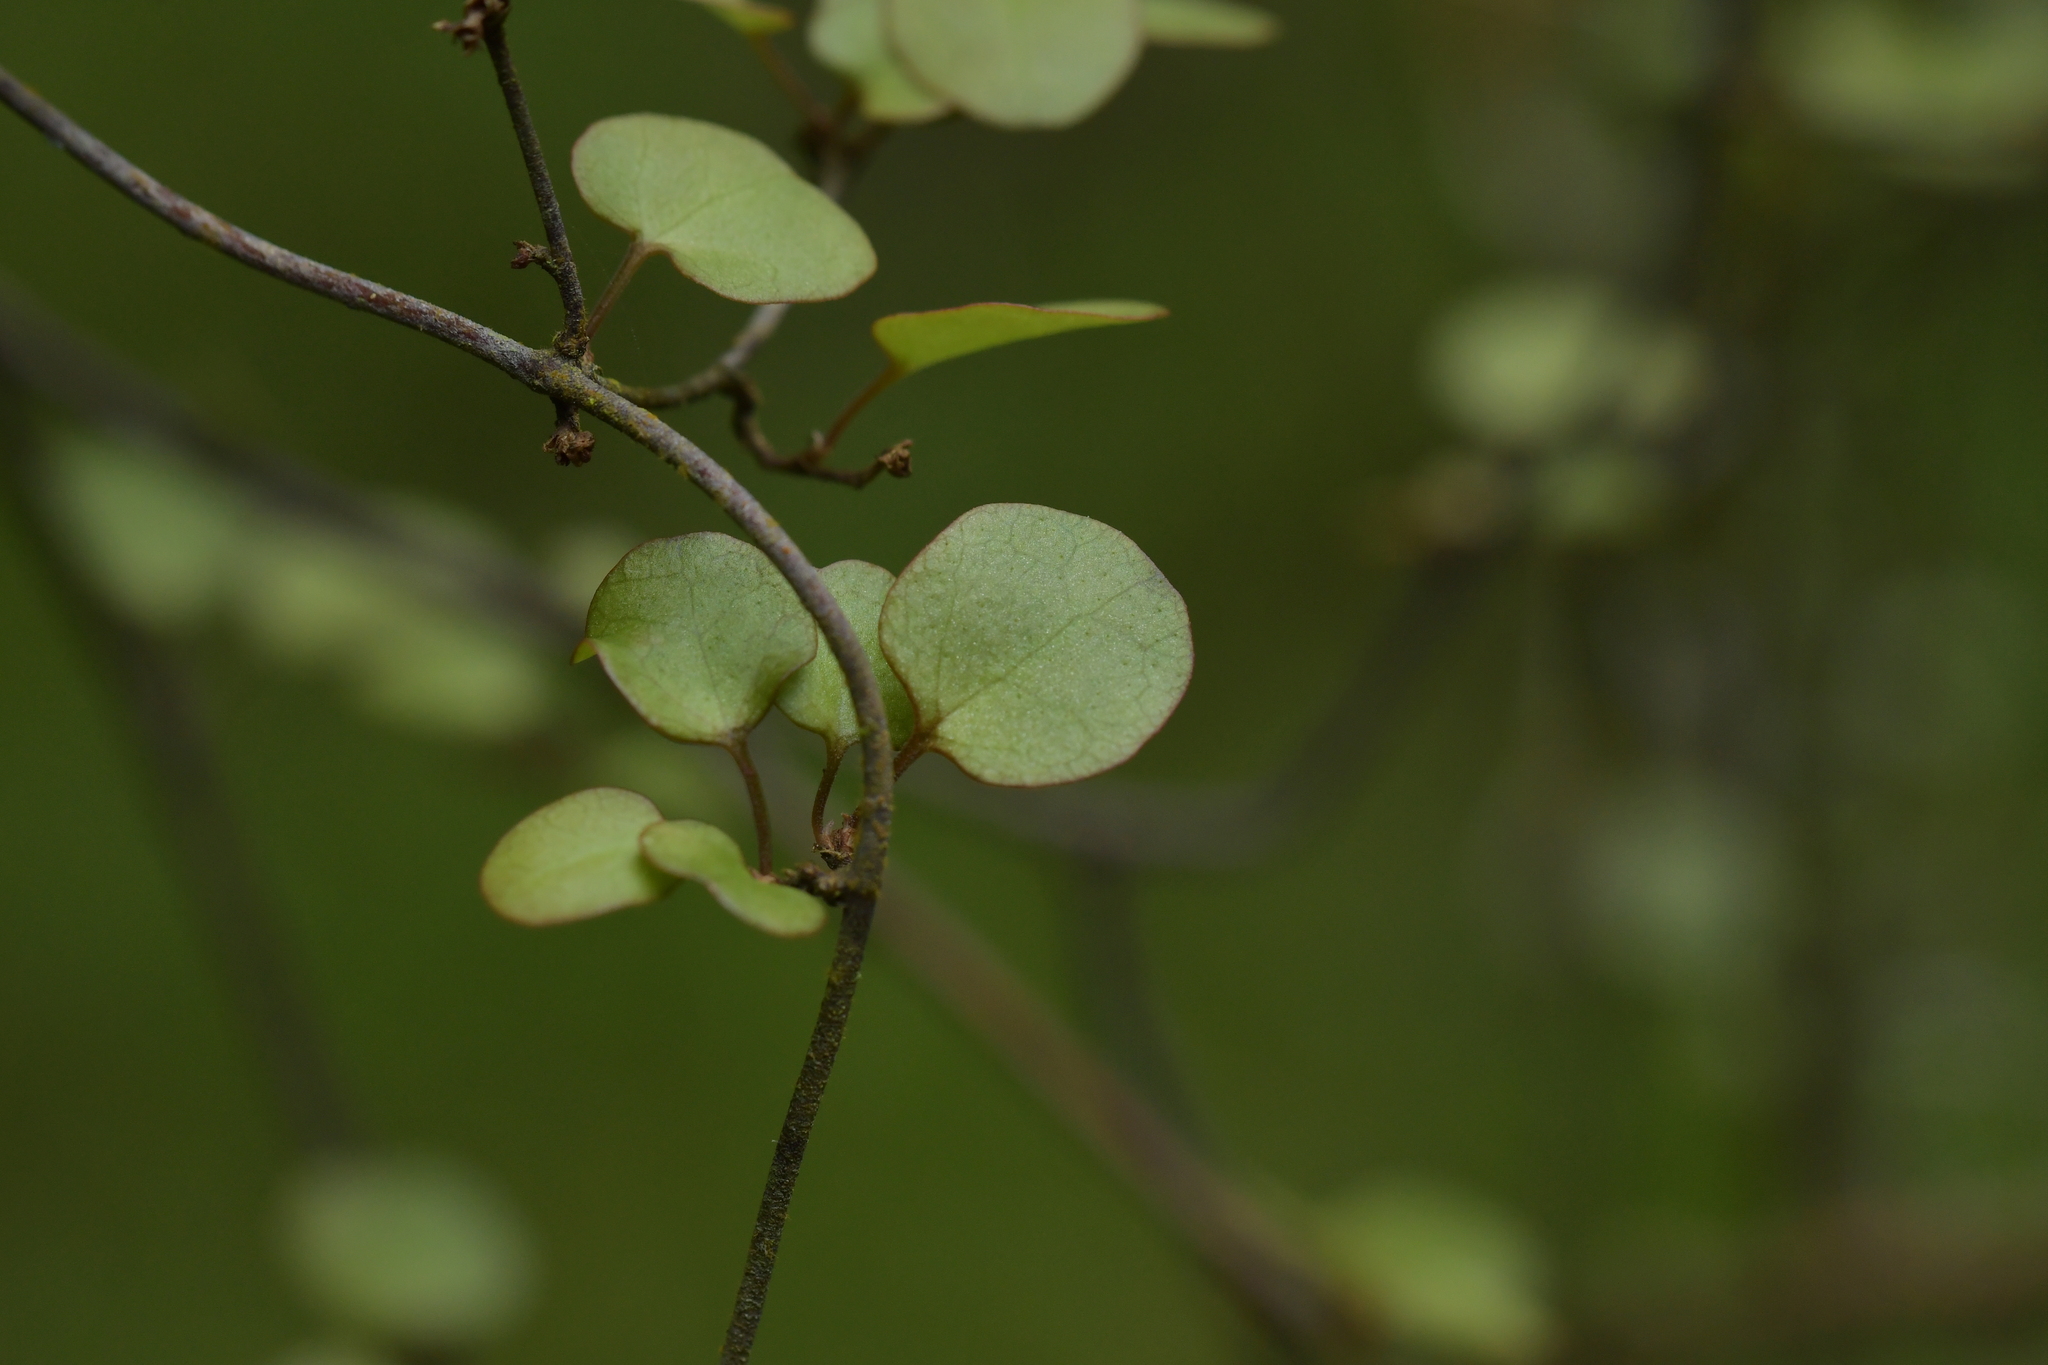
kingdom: Plantae
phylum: Tracheophyta
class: Magnoliopsida
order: Caryophyllales
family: Polygonaceae
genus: Muehlenbeckia
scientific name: Muehlenbeckia complexa
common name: Wireplant
